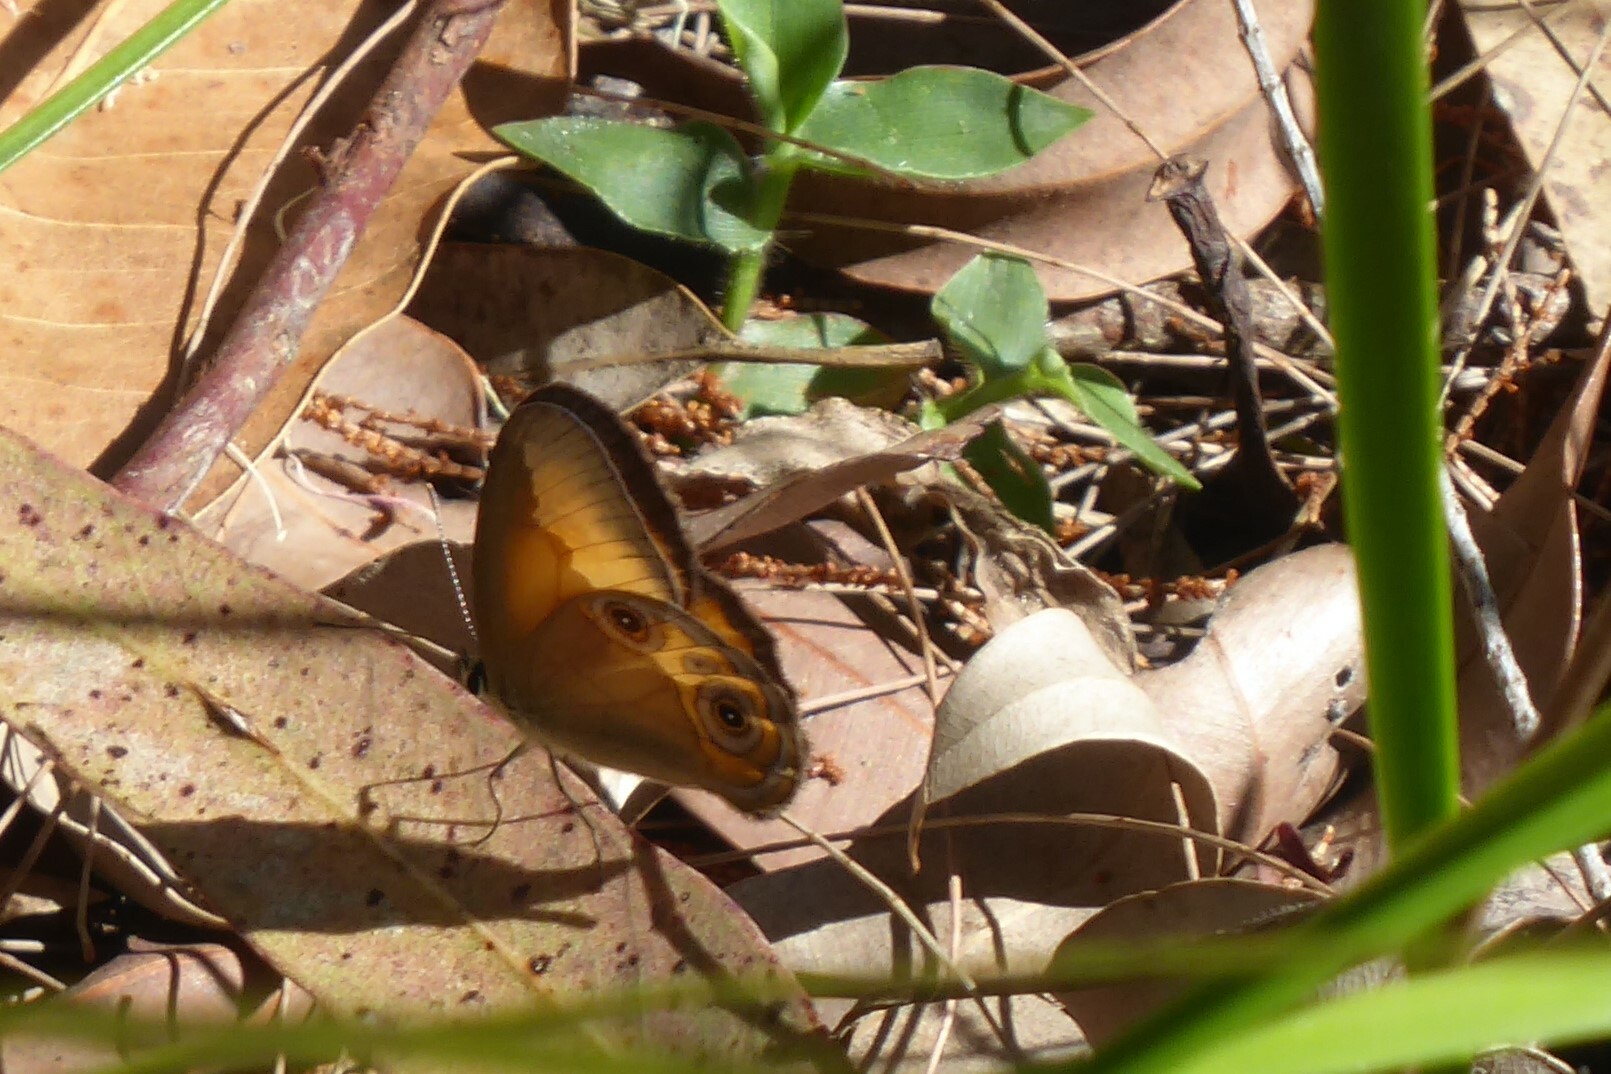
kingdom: Animalia
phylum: Arthropoda
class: Insecta
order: Lepidoptera
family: Nymphalidae
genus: Hypocysta
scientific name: Hypocysta adiante
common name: Orange ringlet
